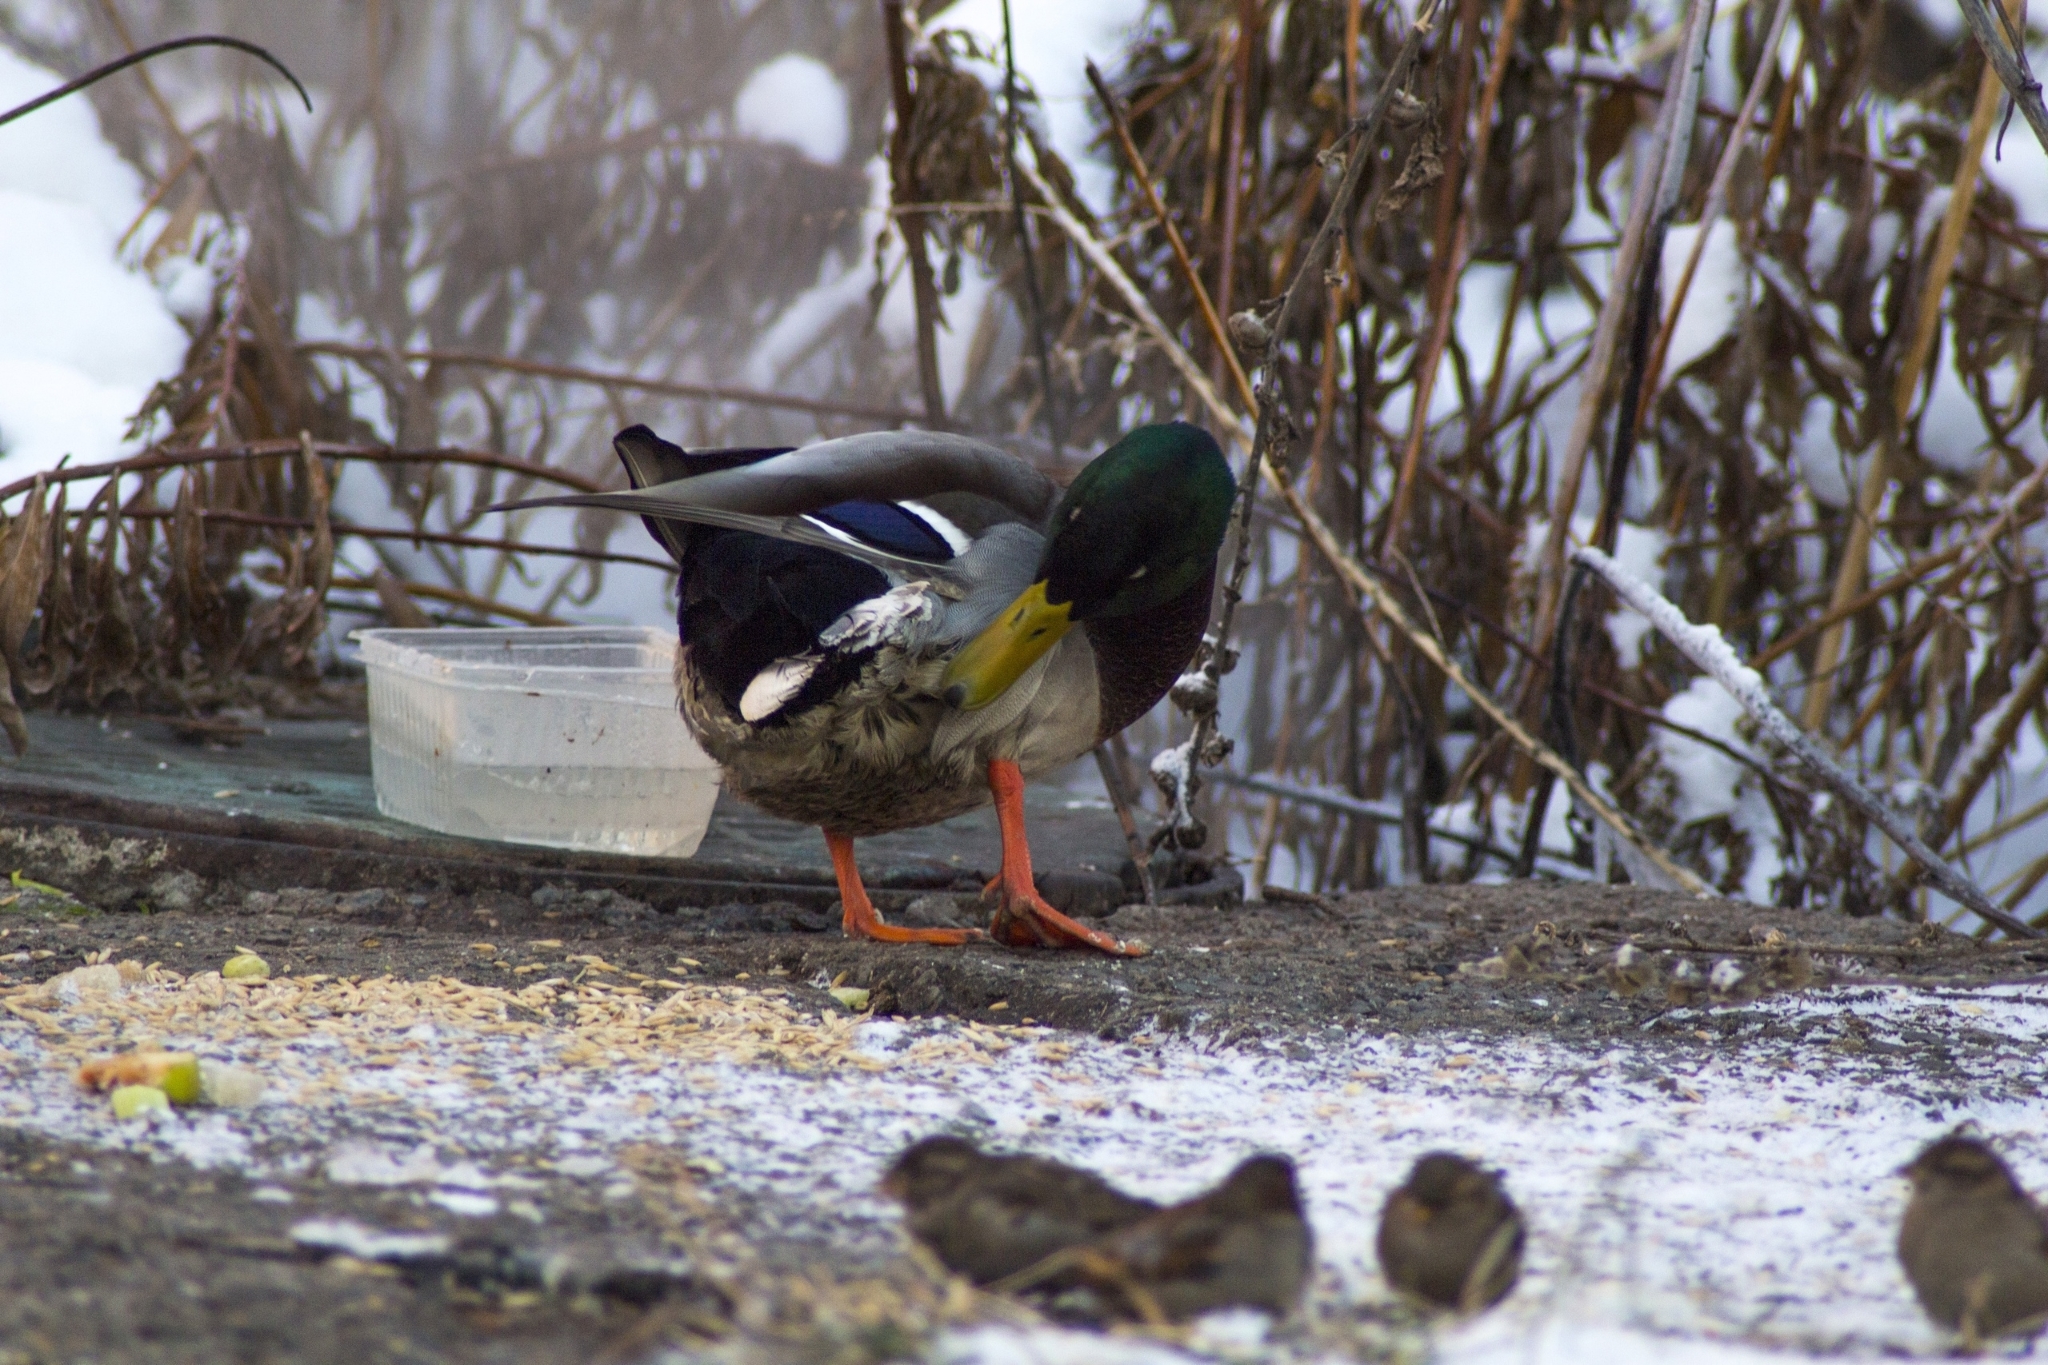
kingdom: Animalia
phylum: Chordata
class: Aves
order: Anseriformes
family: Anatidae
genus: Anas
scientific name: Anas platyrhynchos
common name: Mallard
